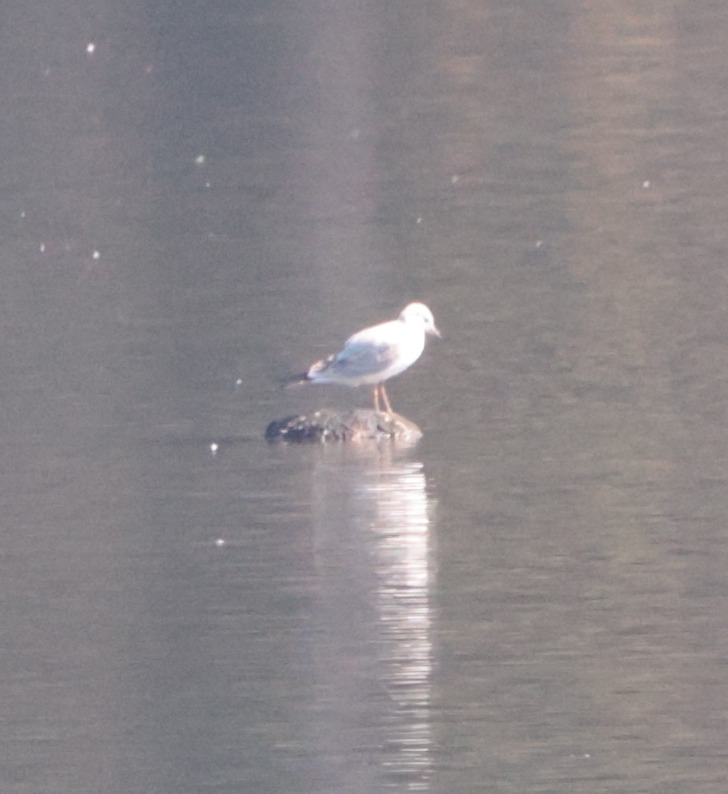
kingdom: Animalia
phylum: Chordata
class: Aves
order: Charadriiformes
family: Laridae
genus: Chroicocephalus
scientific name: Chroicocephalus ridibundus
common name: Black-headed gull
